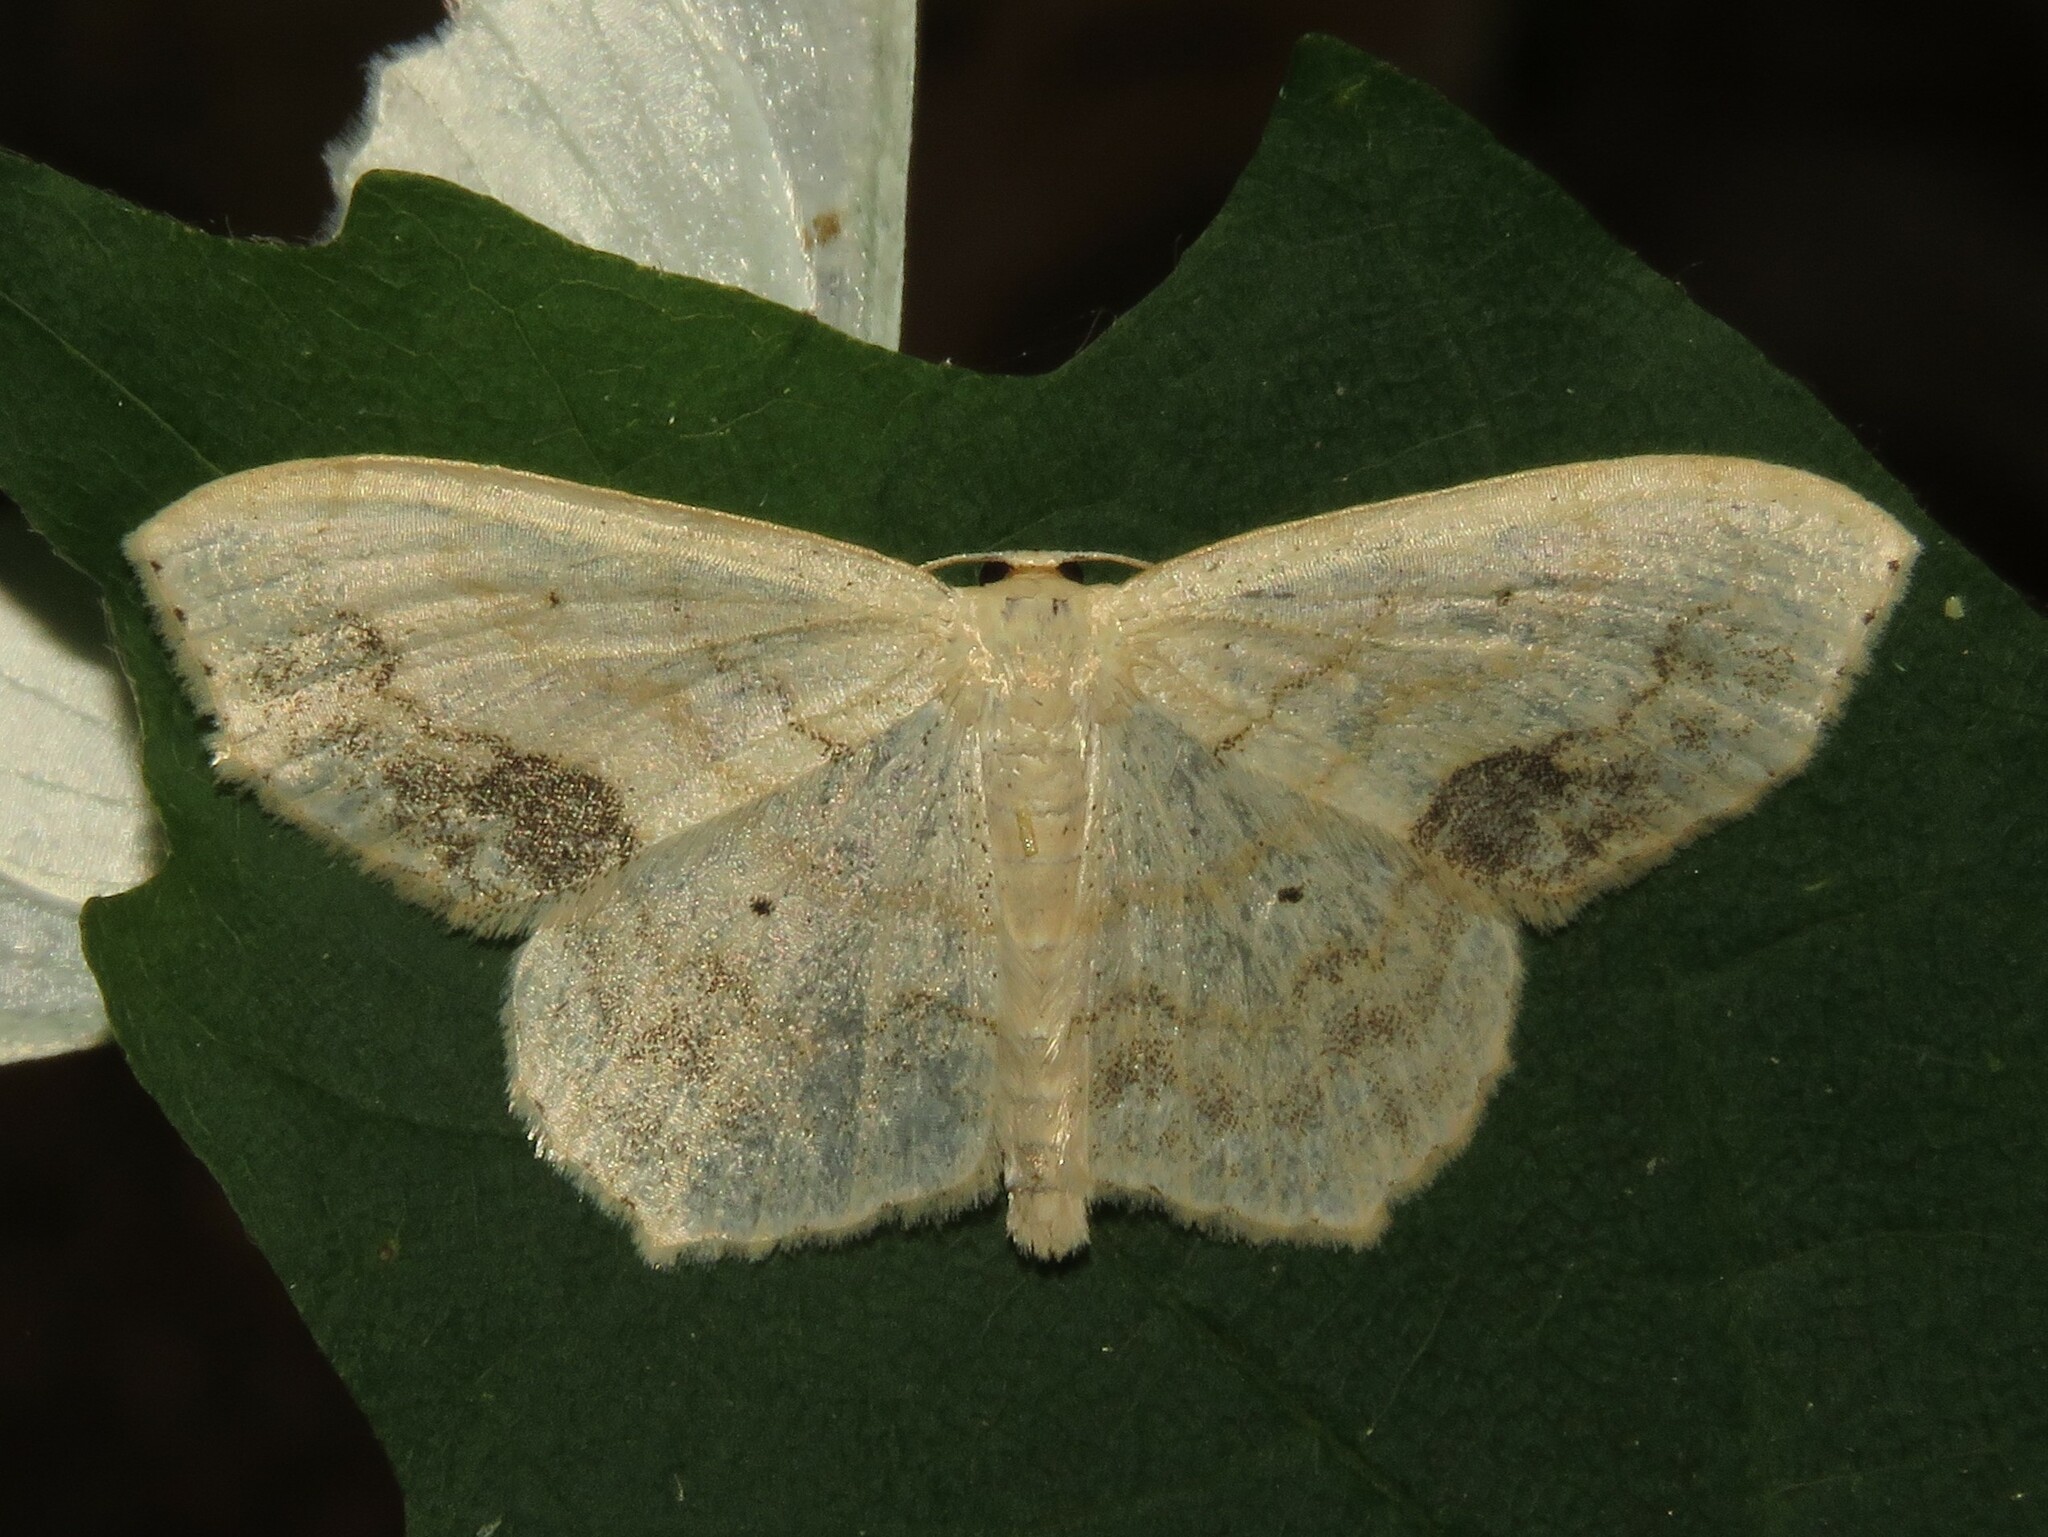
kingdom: Animalia
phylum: Arthropoda
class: Insecta
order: Lepidoptera
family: Geometridae
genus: Scopula
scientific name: Scopula limboundata
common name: Large lace border
